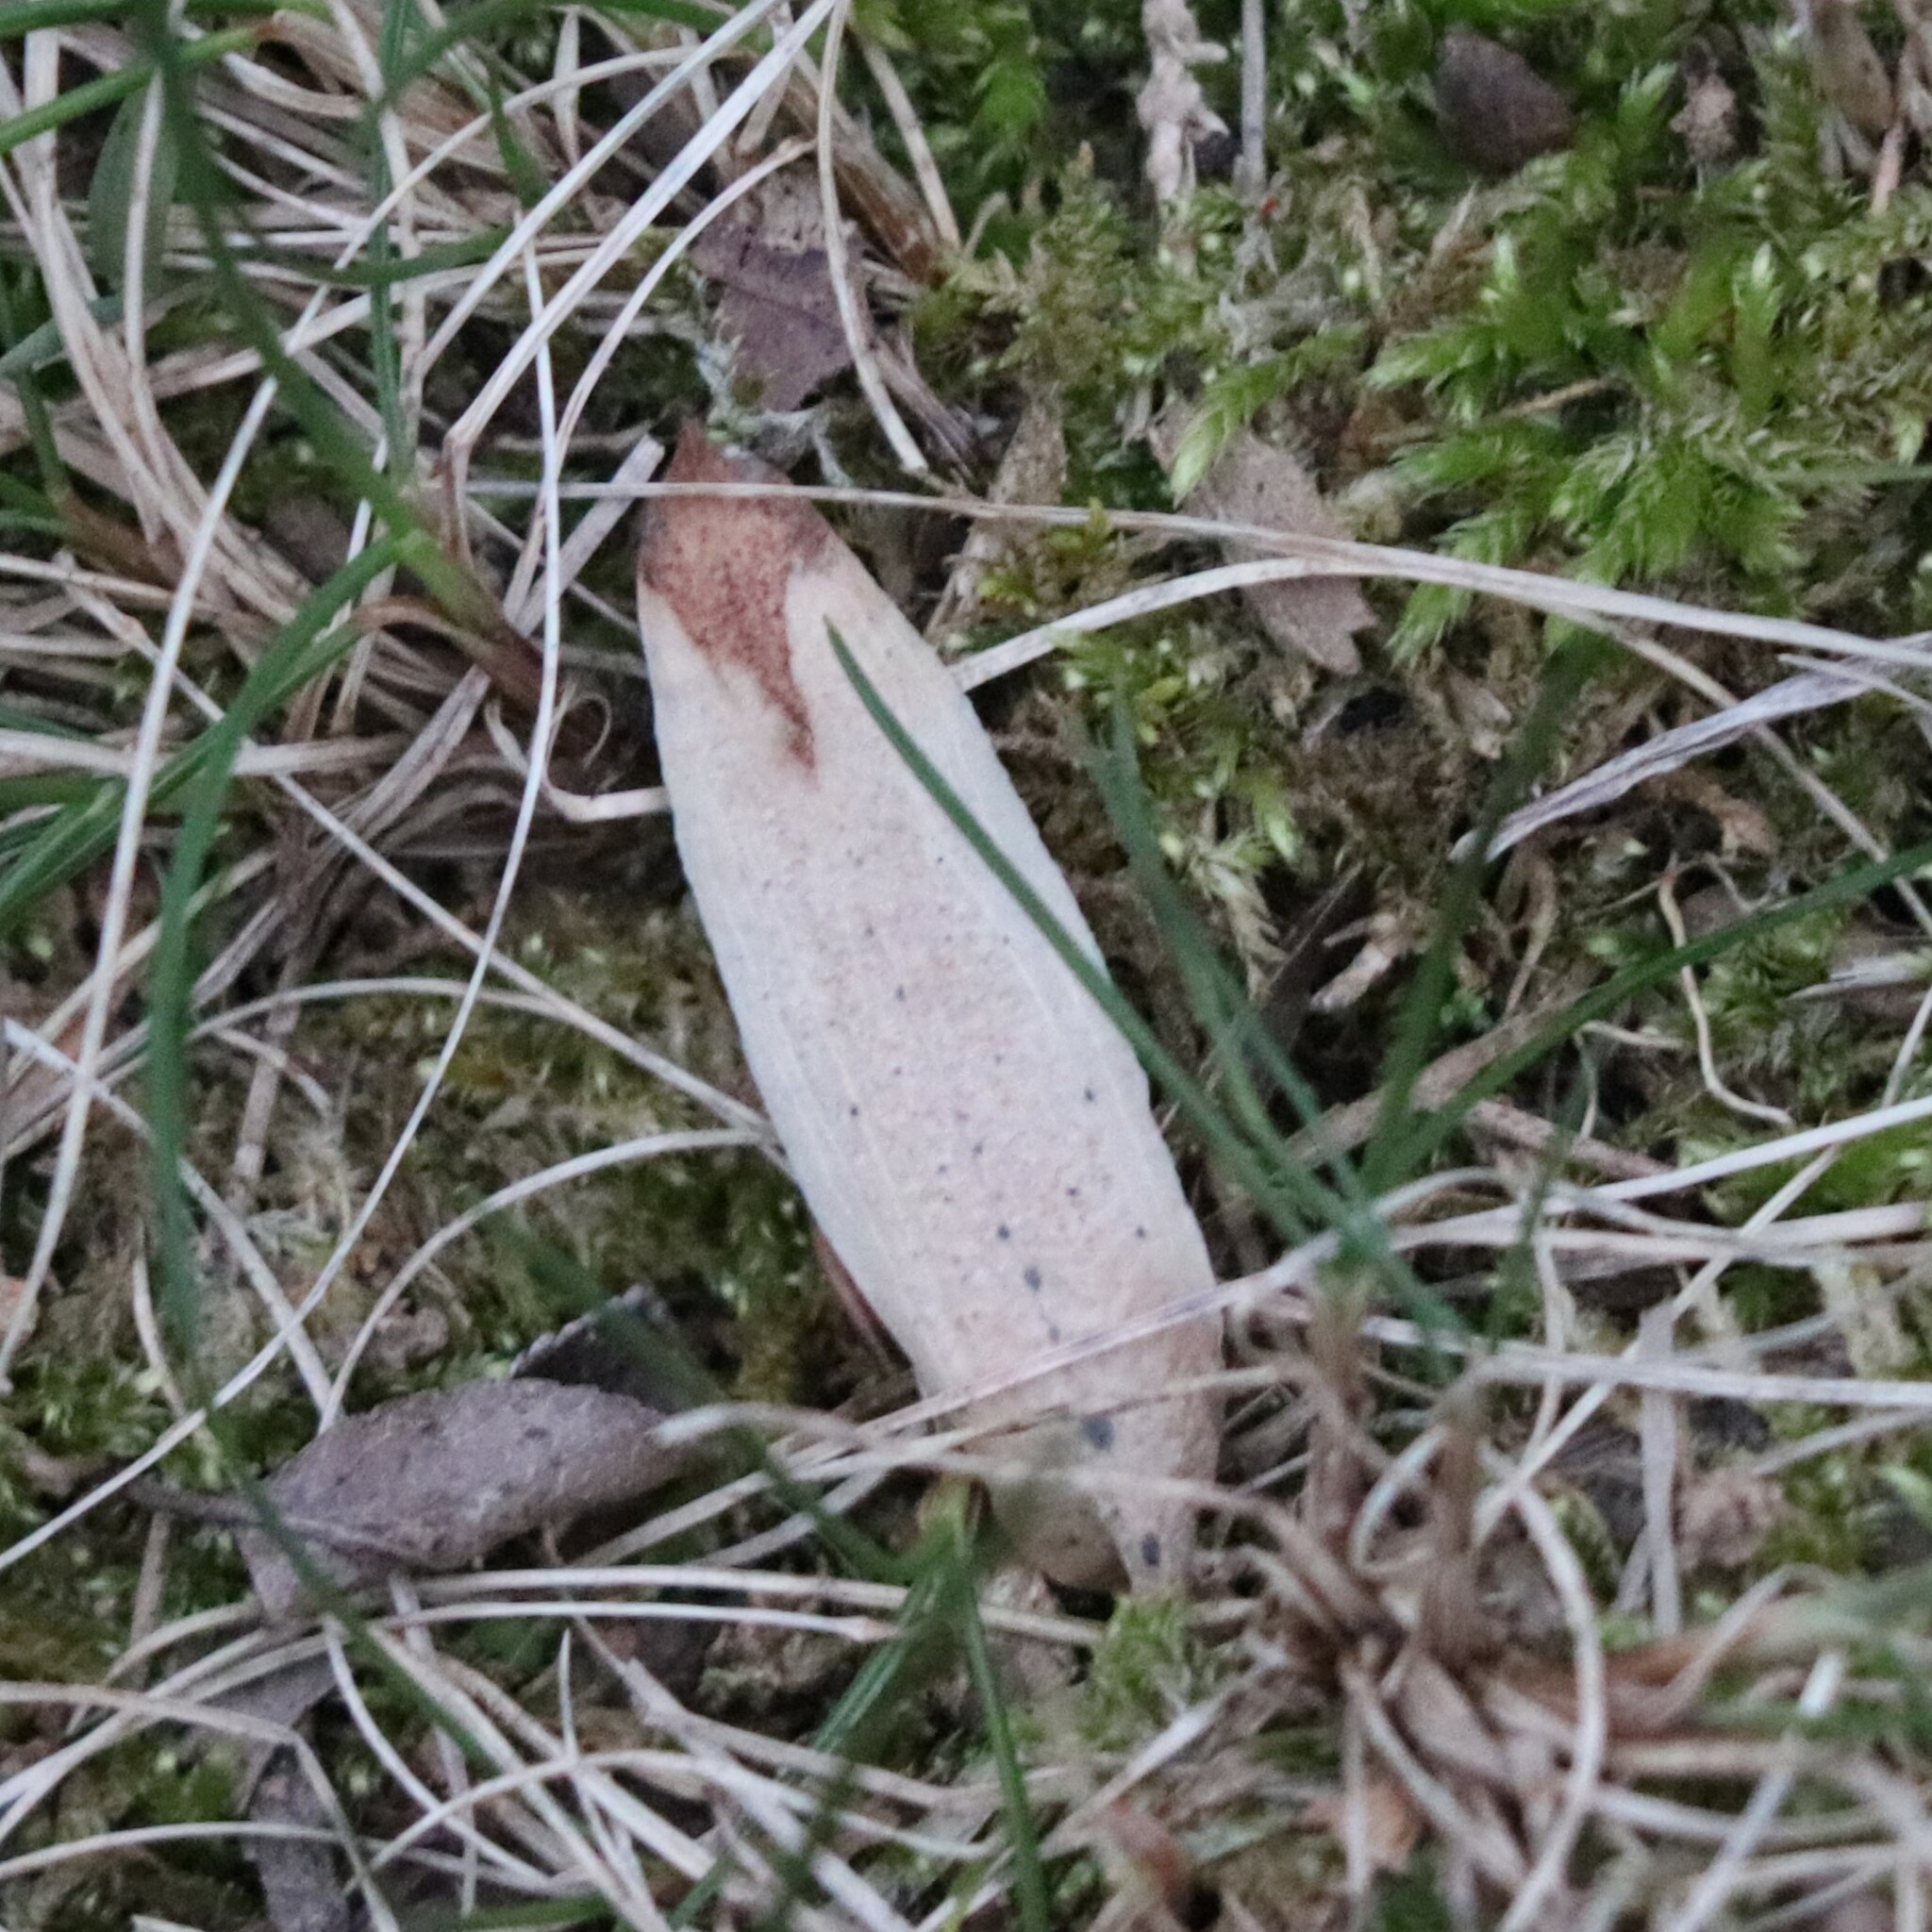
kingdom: Plantae
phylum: Tracheophyta
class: Magnoliopsida
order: Magnoliales
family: Magnoliaceae
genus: Liriodendron
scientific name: Liriodendron tulipifera
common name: Tulip tree
